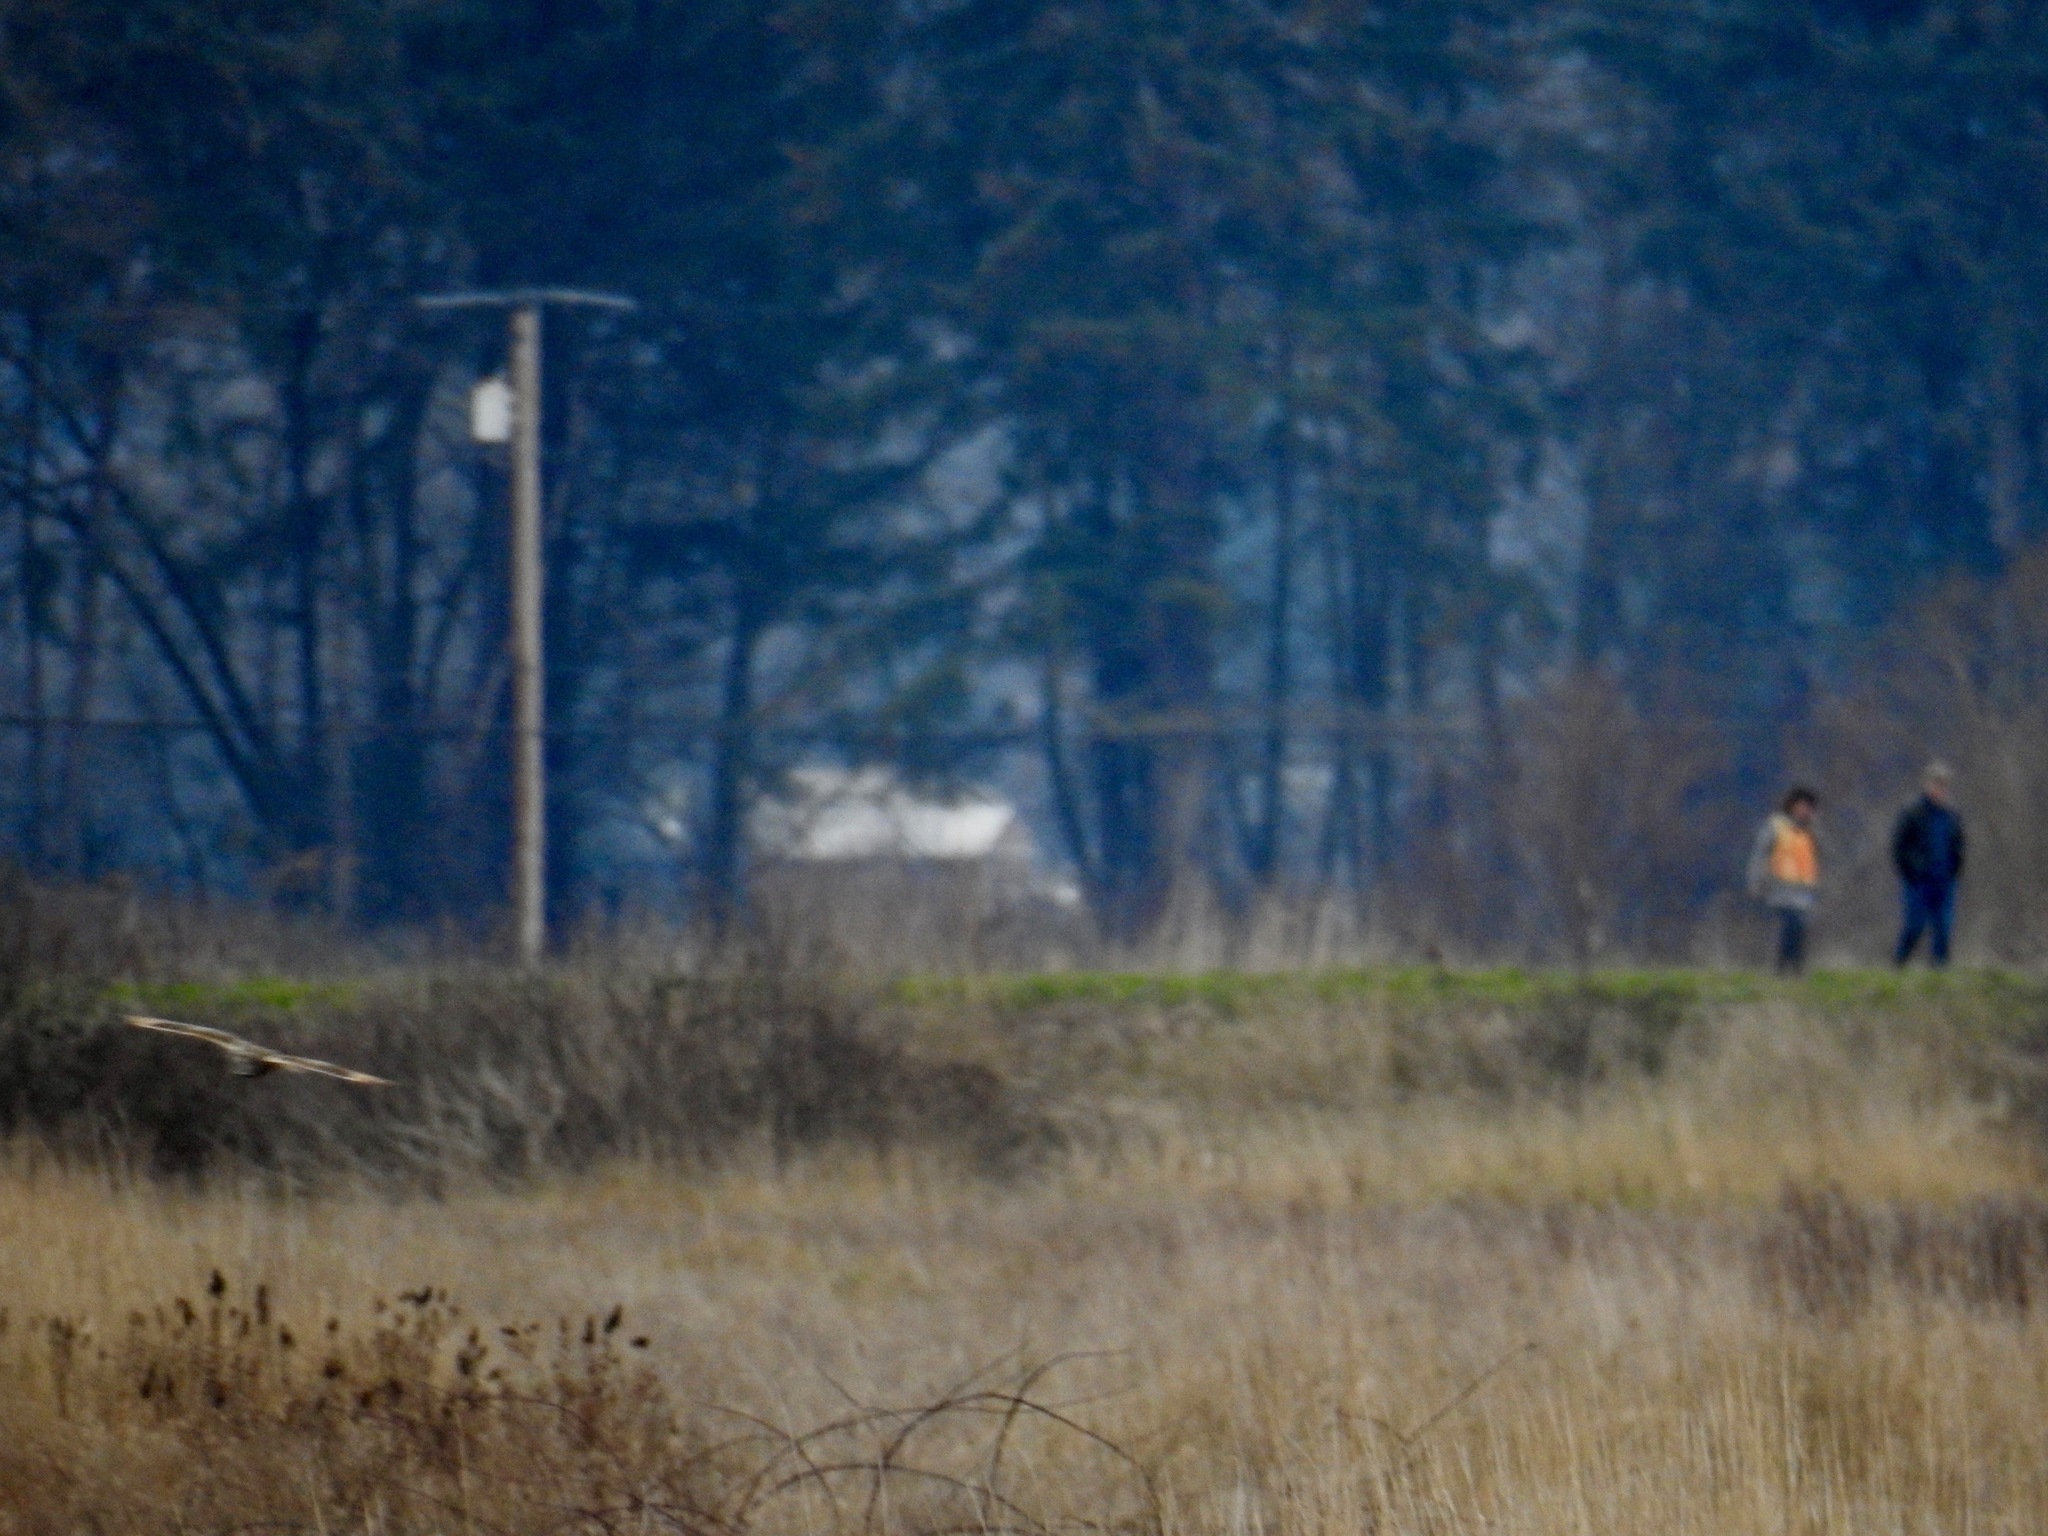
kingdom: Animalia
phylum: Chordata
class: Aves
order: Strigiformes
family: Strigidae
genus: Asio
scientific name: Asio flammeus
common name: Short-eared owl
